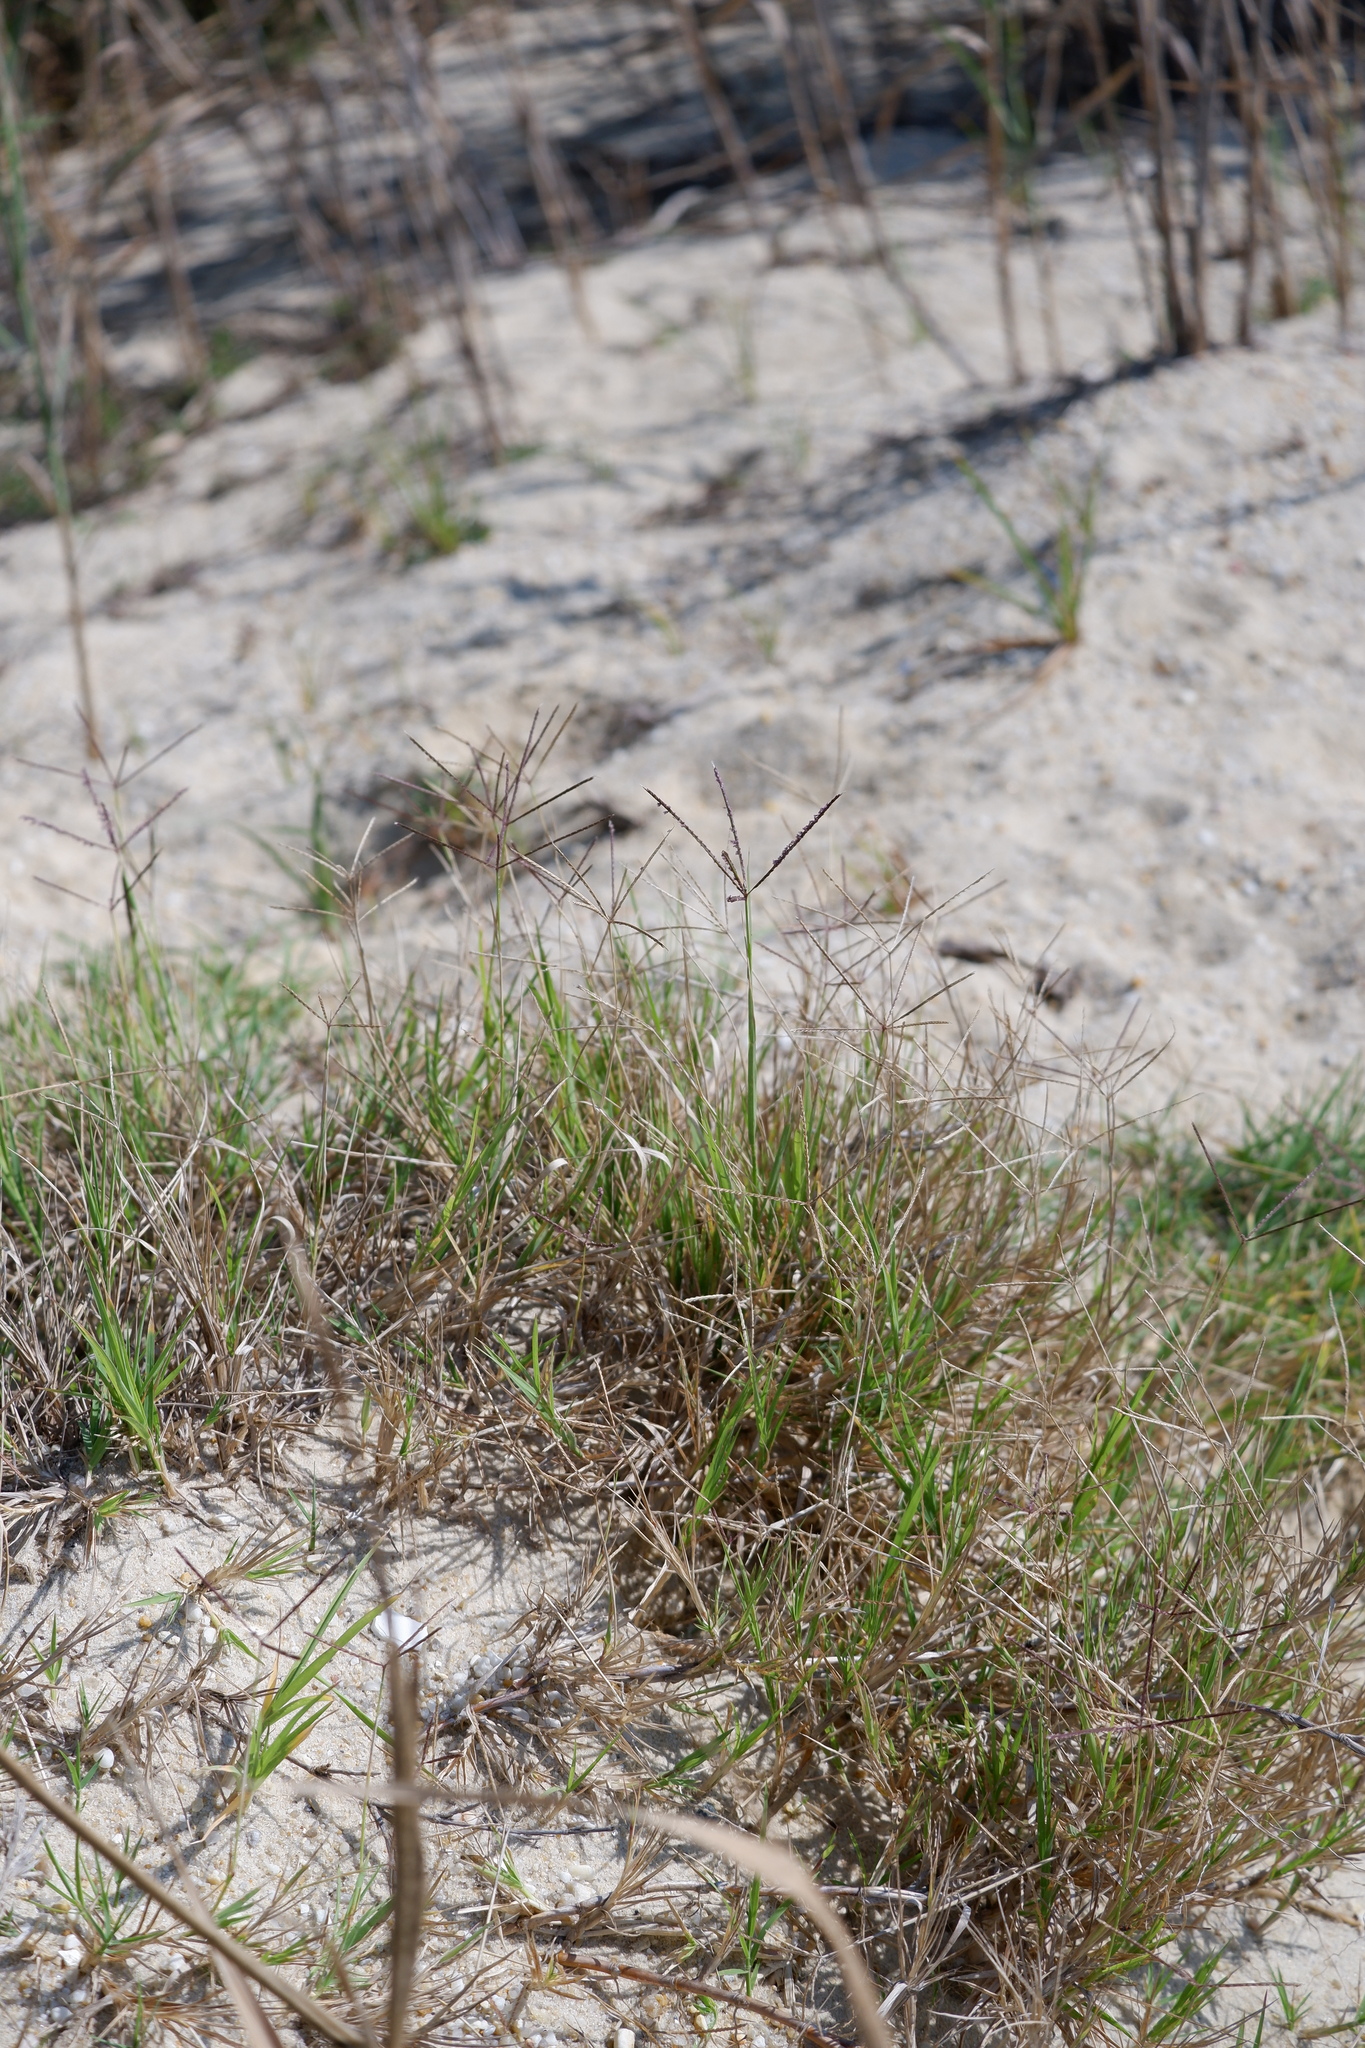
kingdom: Plantae
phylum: Tracheophyta
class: Liliopsida
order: Poales
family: Poaceae
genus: Cynodon
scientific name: Cynodon dactylon
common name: Bermuda grass
